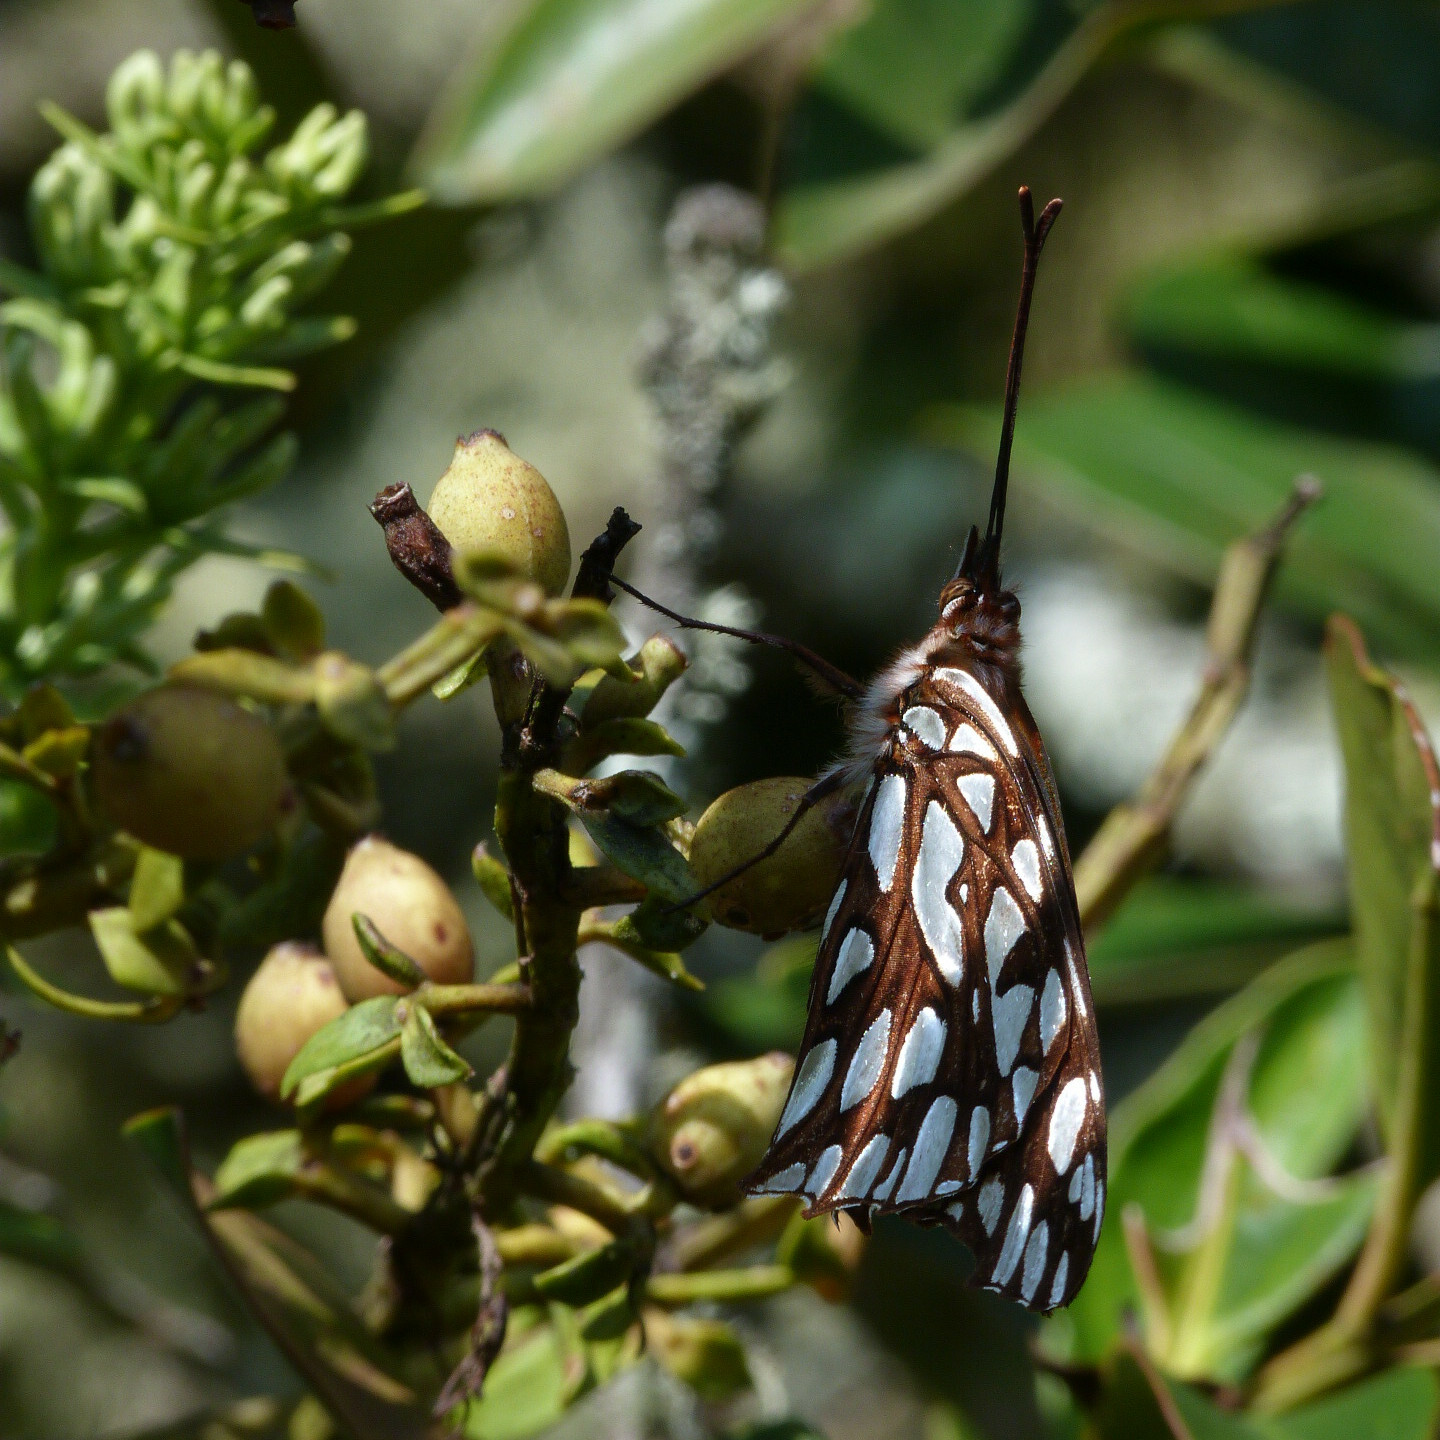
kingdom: Animalia
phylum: Arthropoda
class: Insecta
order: Lepidoptera
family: Nymphalidae
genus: Dione
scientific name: Dione glycera
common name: Andean silverspot
